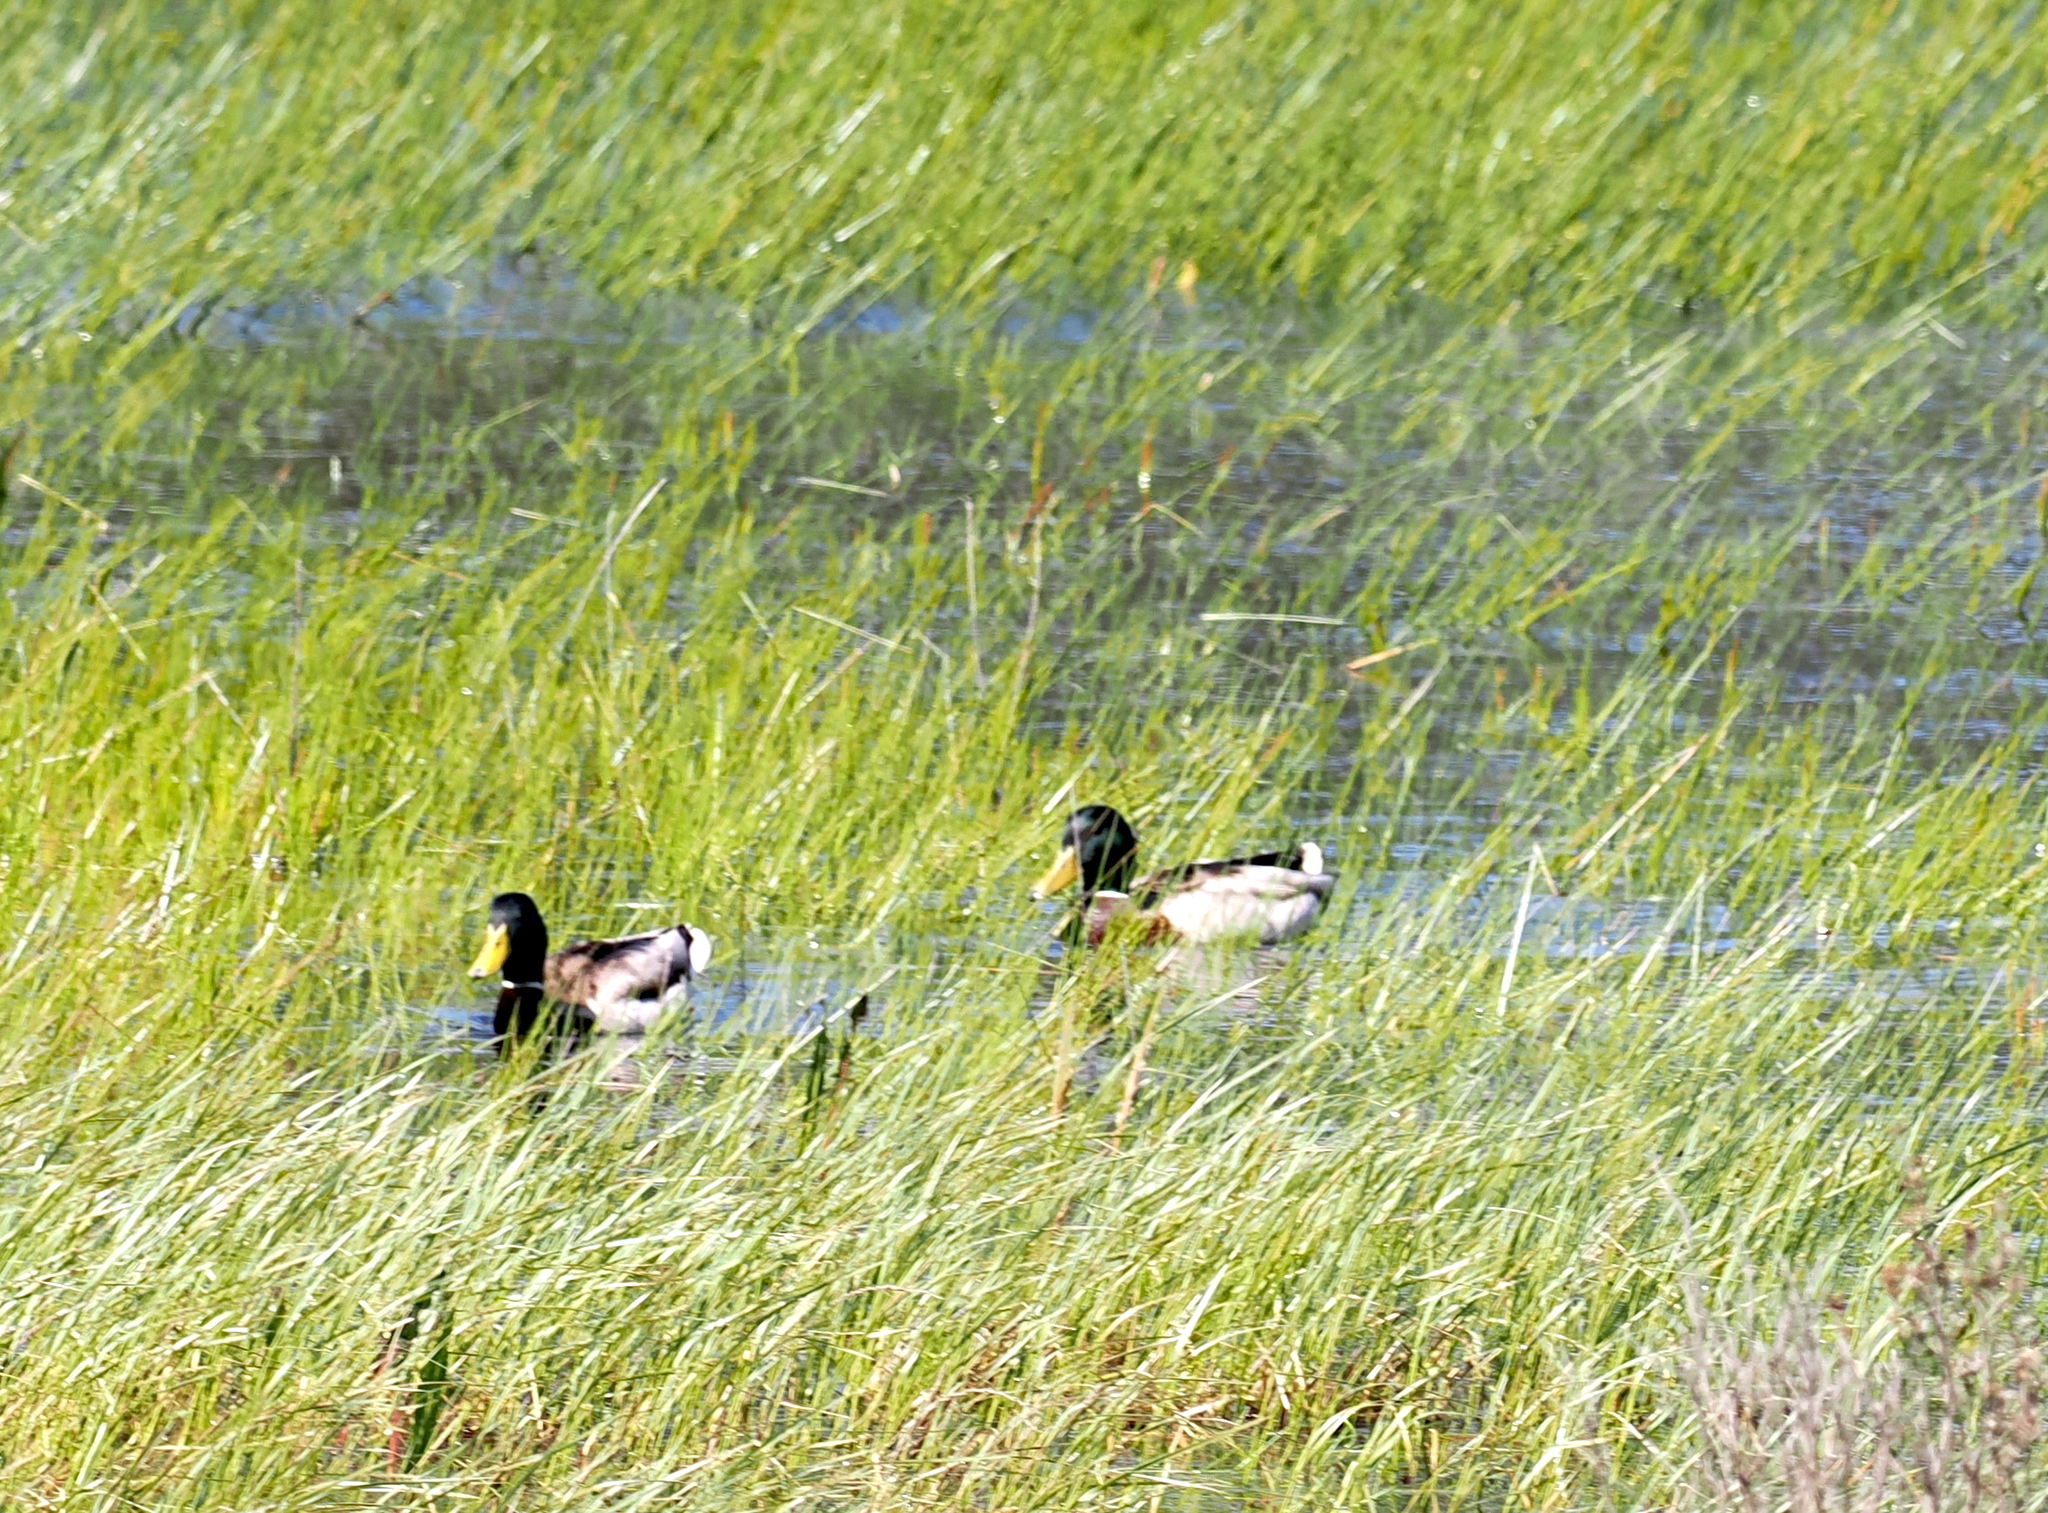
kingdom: Animalia
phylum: Chordata
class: Aves
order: Anseriformes
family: Anatidae
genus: Anas
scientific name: Anas platyrhynchos
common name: Mallard
